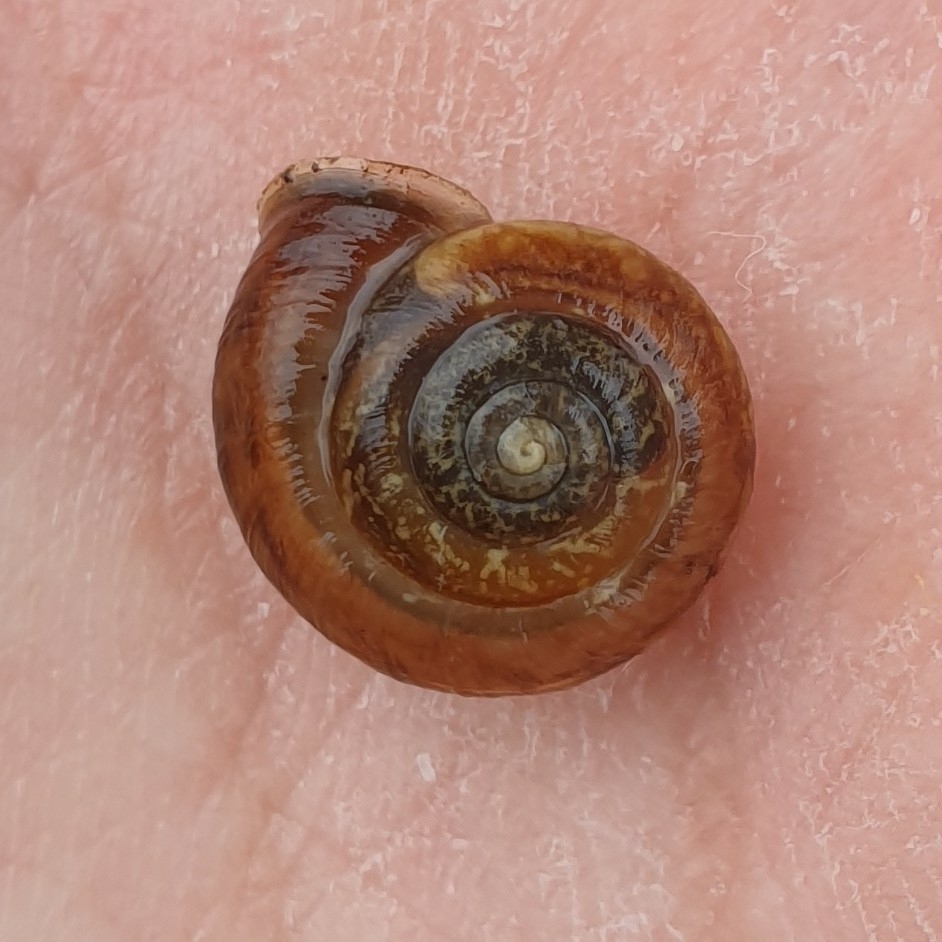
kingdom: Animalia
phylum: Mollusca
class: Gastropoda
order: Stylommatophora
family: Hygromiidae
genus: Urticicola
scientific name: Urticicola umbrosus
